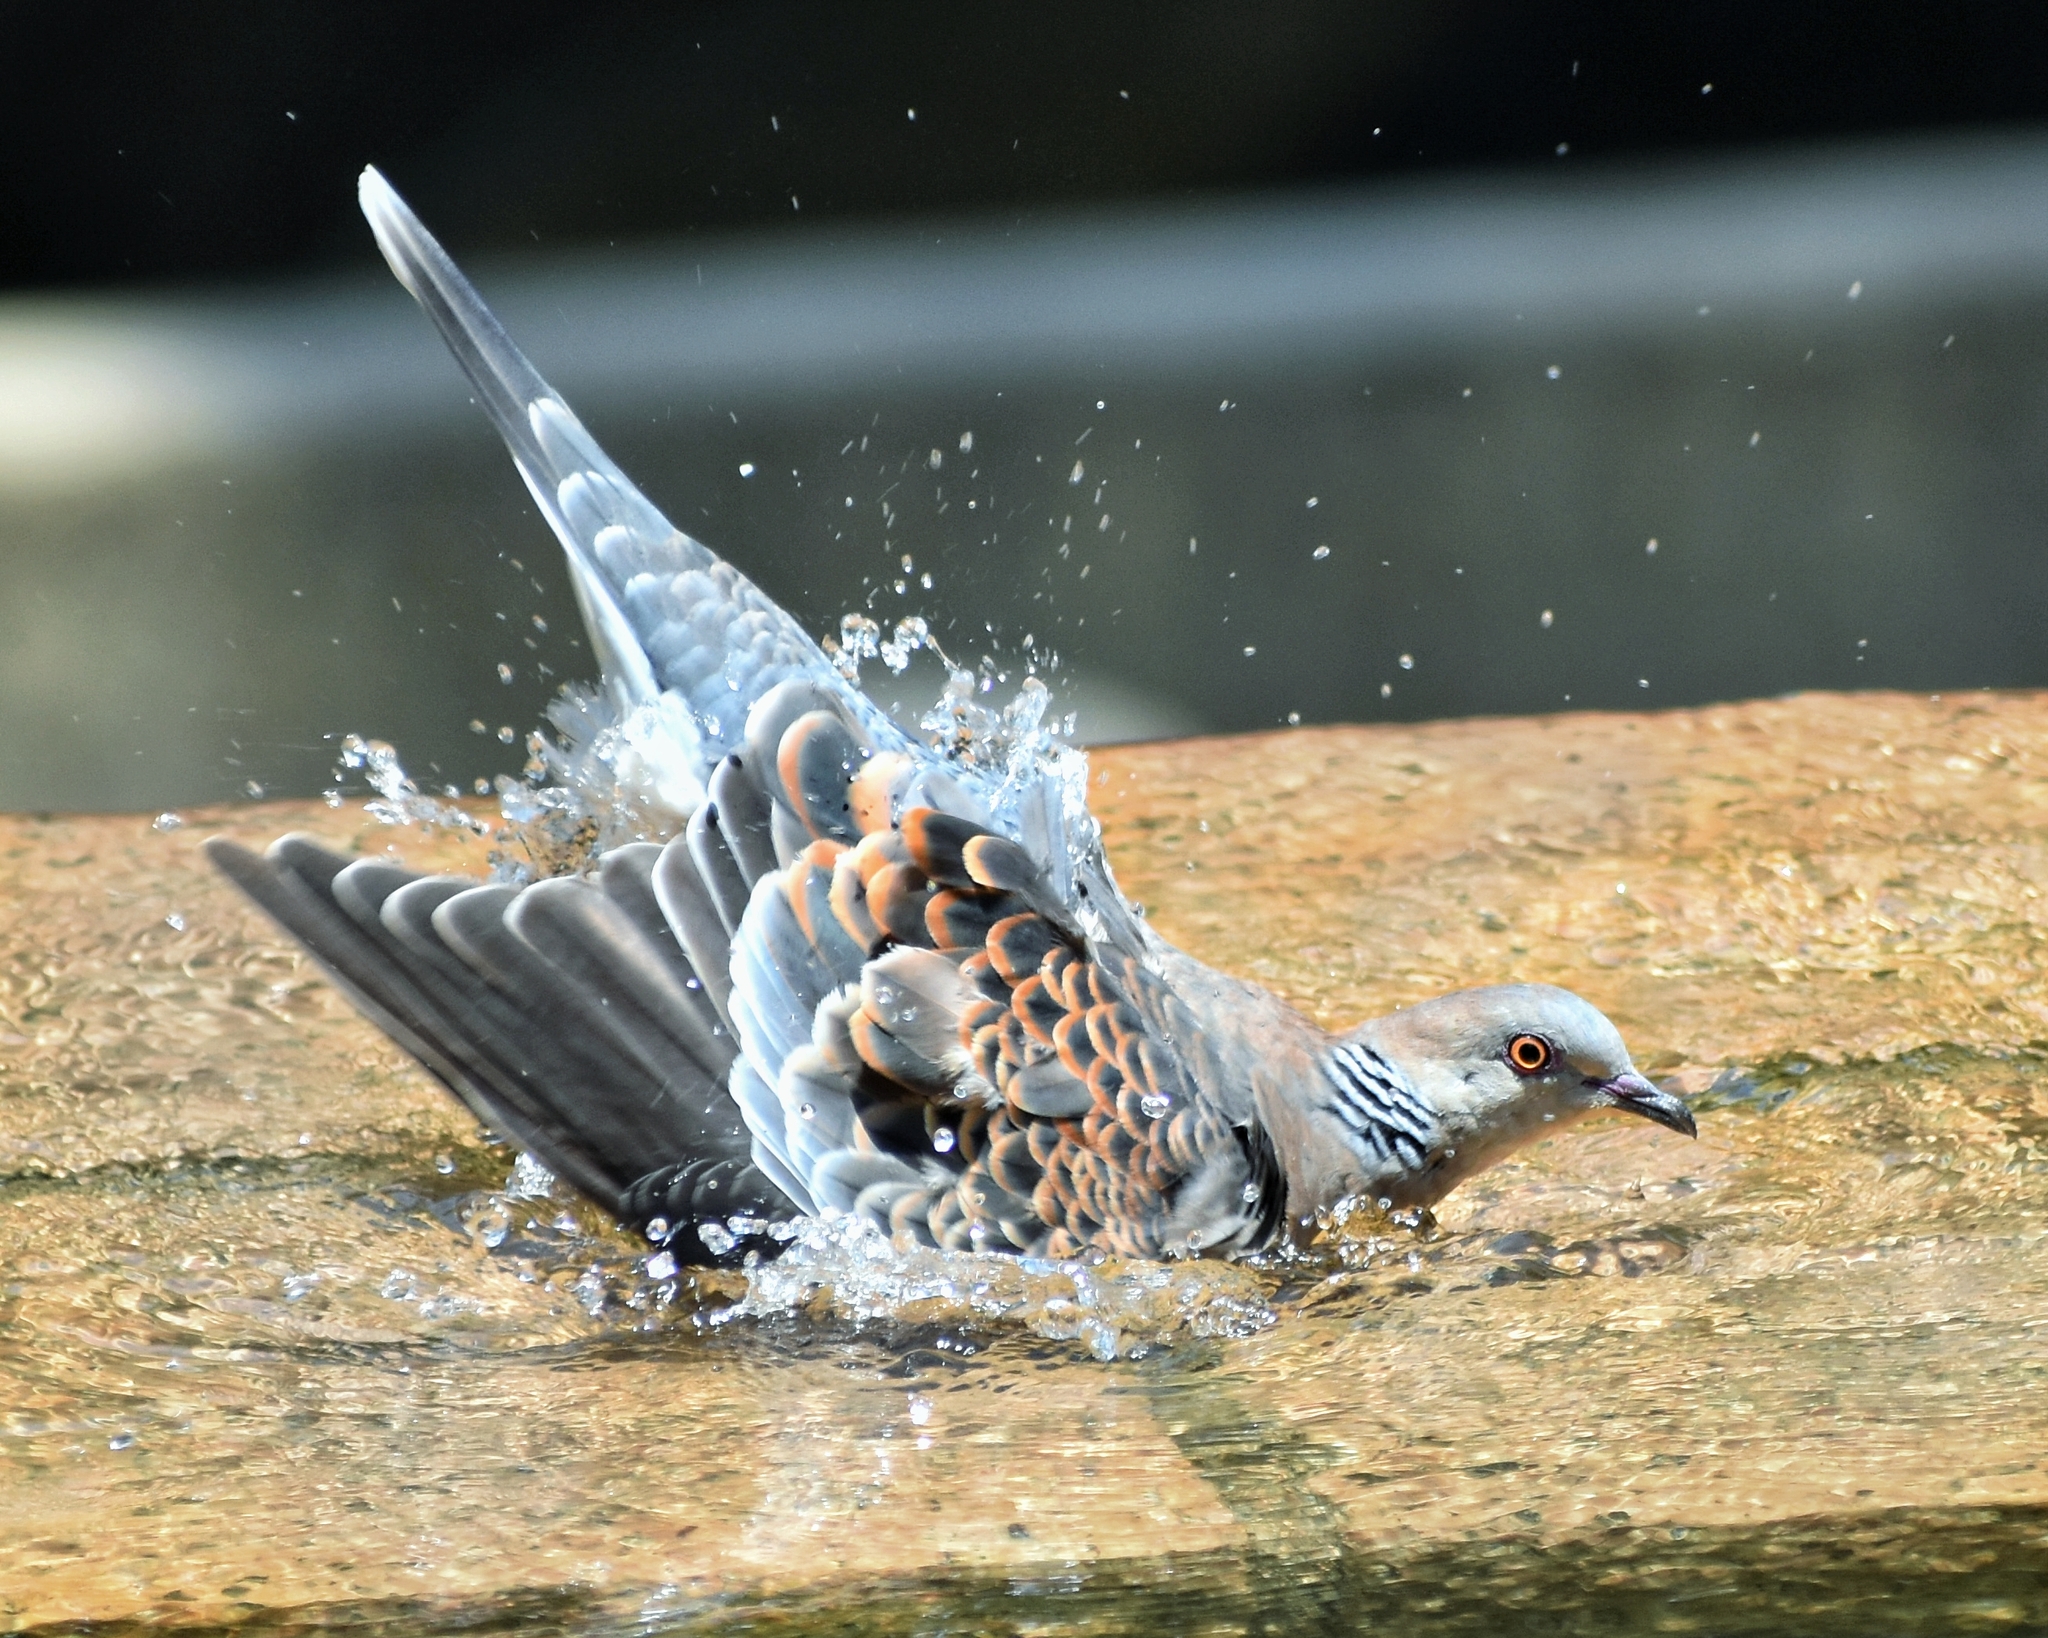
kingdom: Animalia
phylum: Chordata
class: Aves
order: Columbiformes
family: Columbidae
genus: Streptopelia
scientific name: Streptopelia orientalis
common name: Oriental turtle dove
